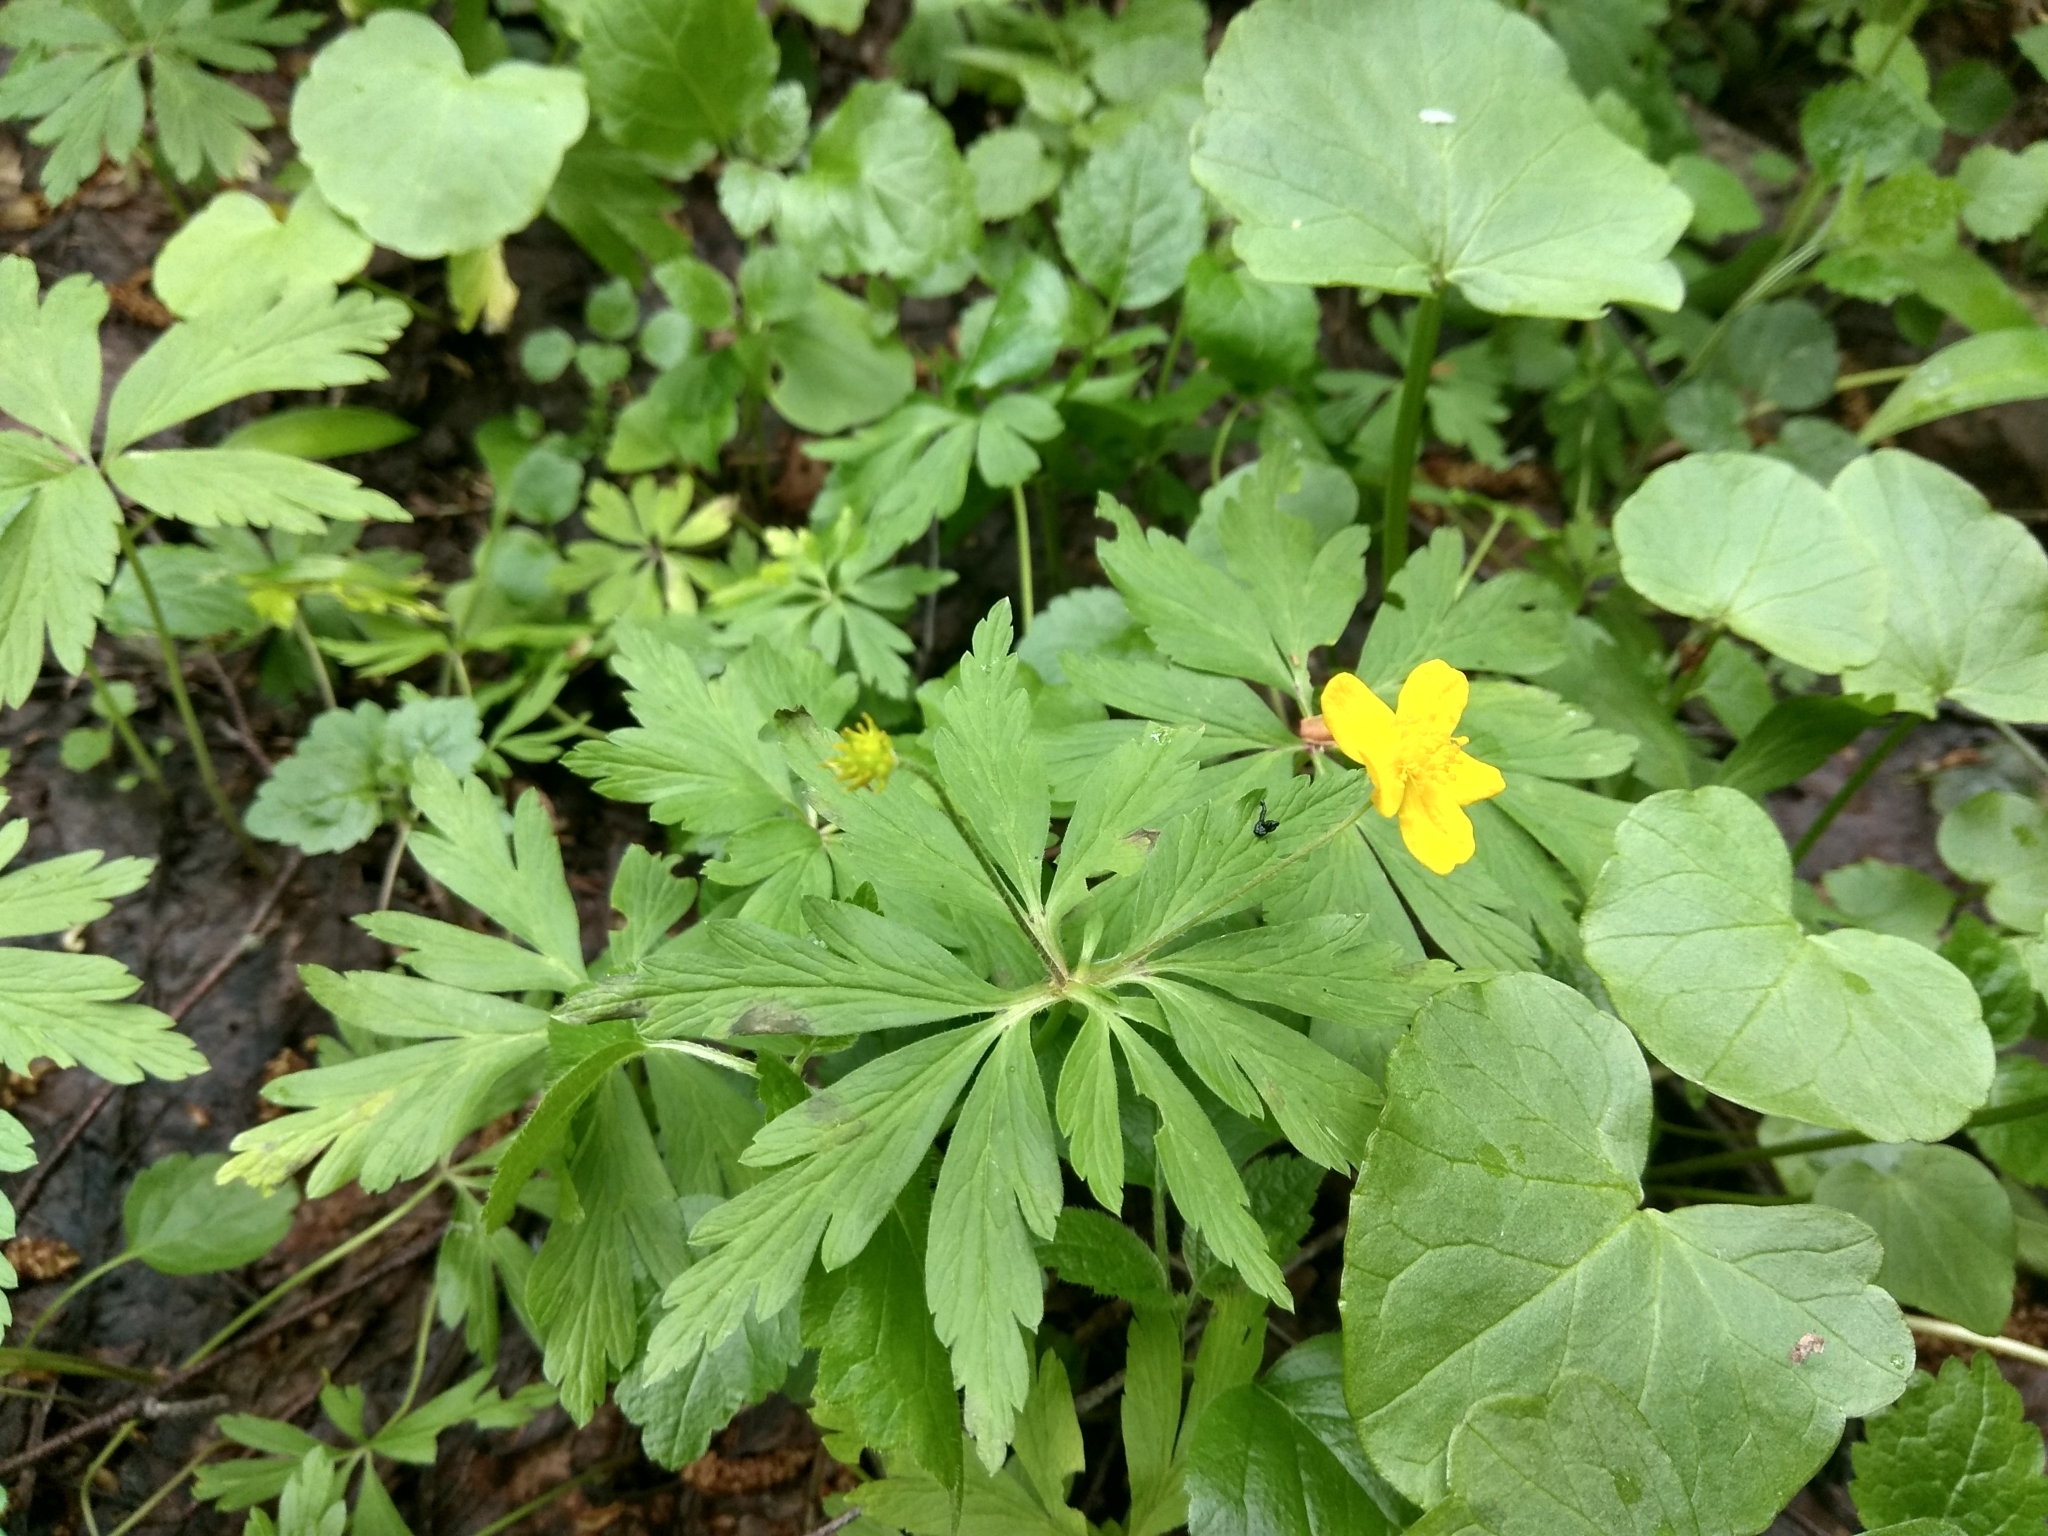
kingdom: Plantae
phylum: Tracheophyta
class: Magnoliopsida
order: Ranunculales
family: Ranunculaceae
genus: Anemone
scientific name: Anemone ranunculoides
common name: Yellow anemone
